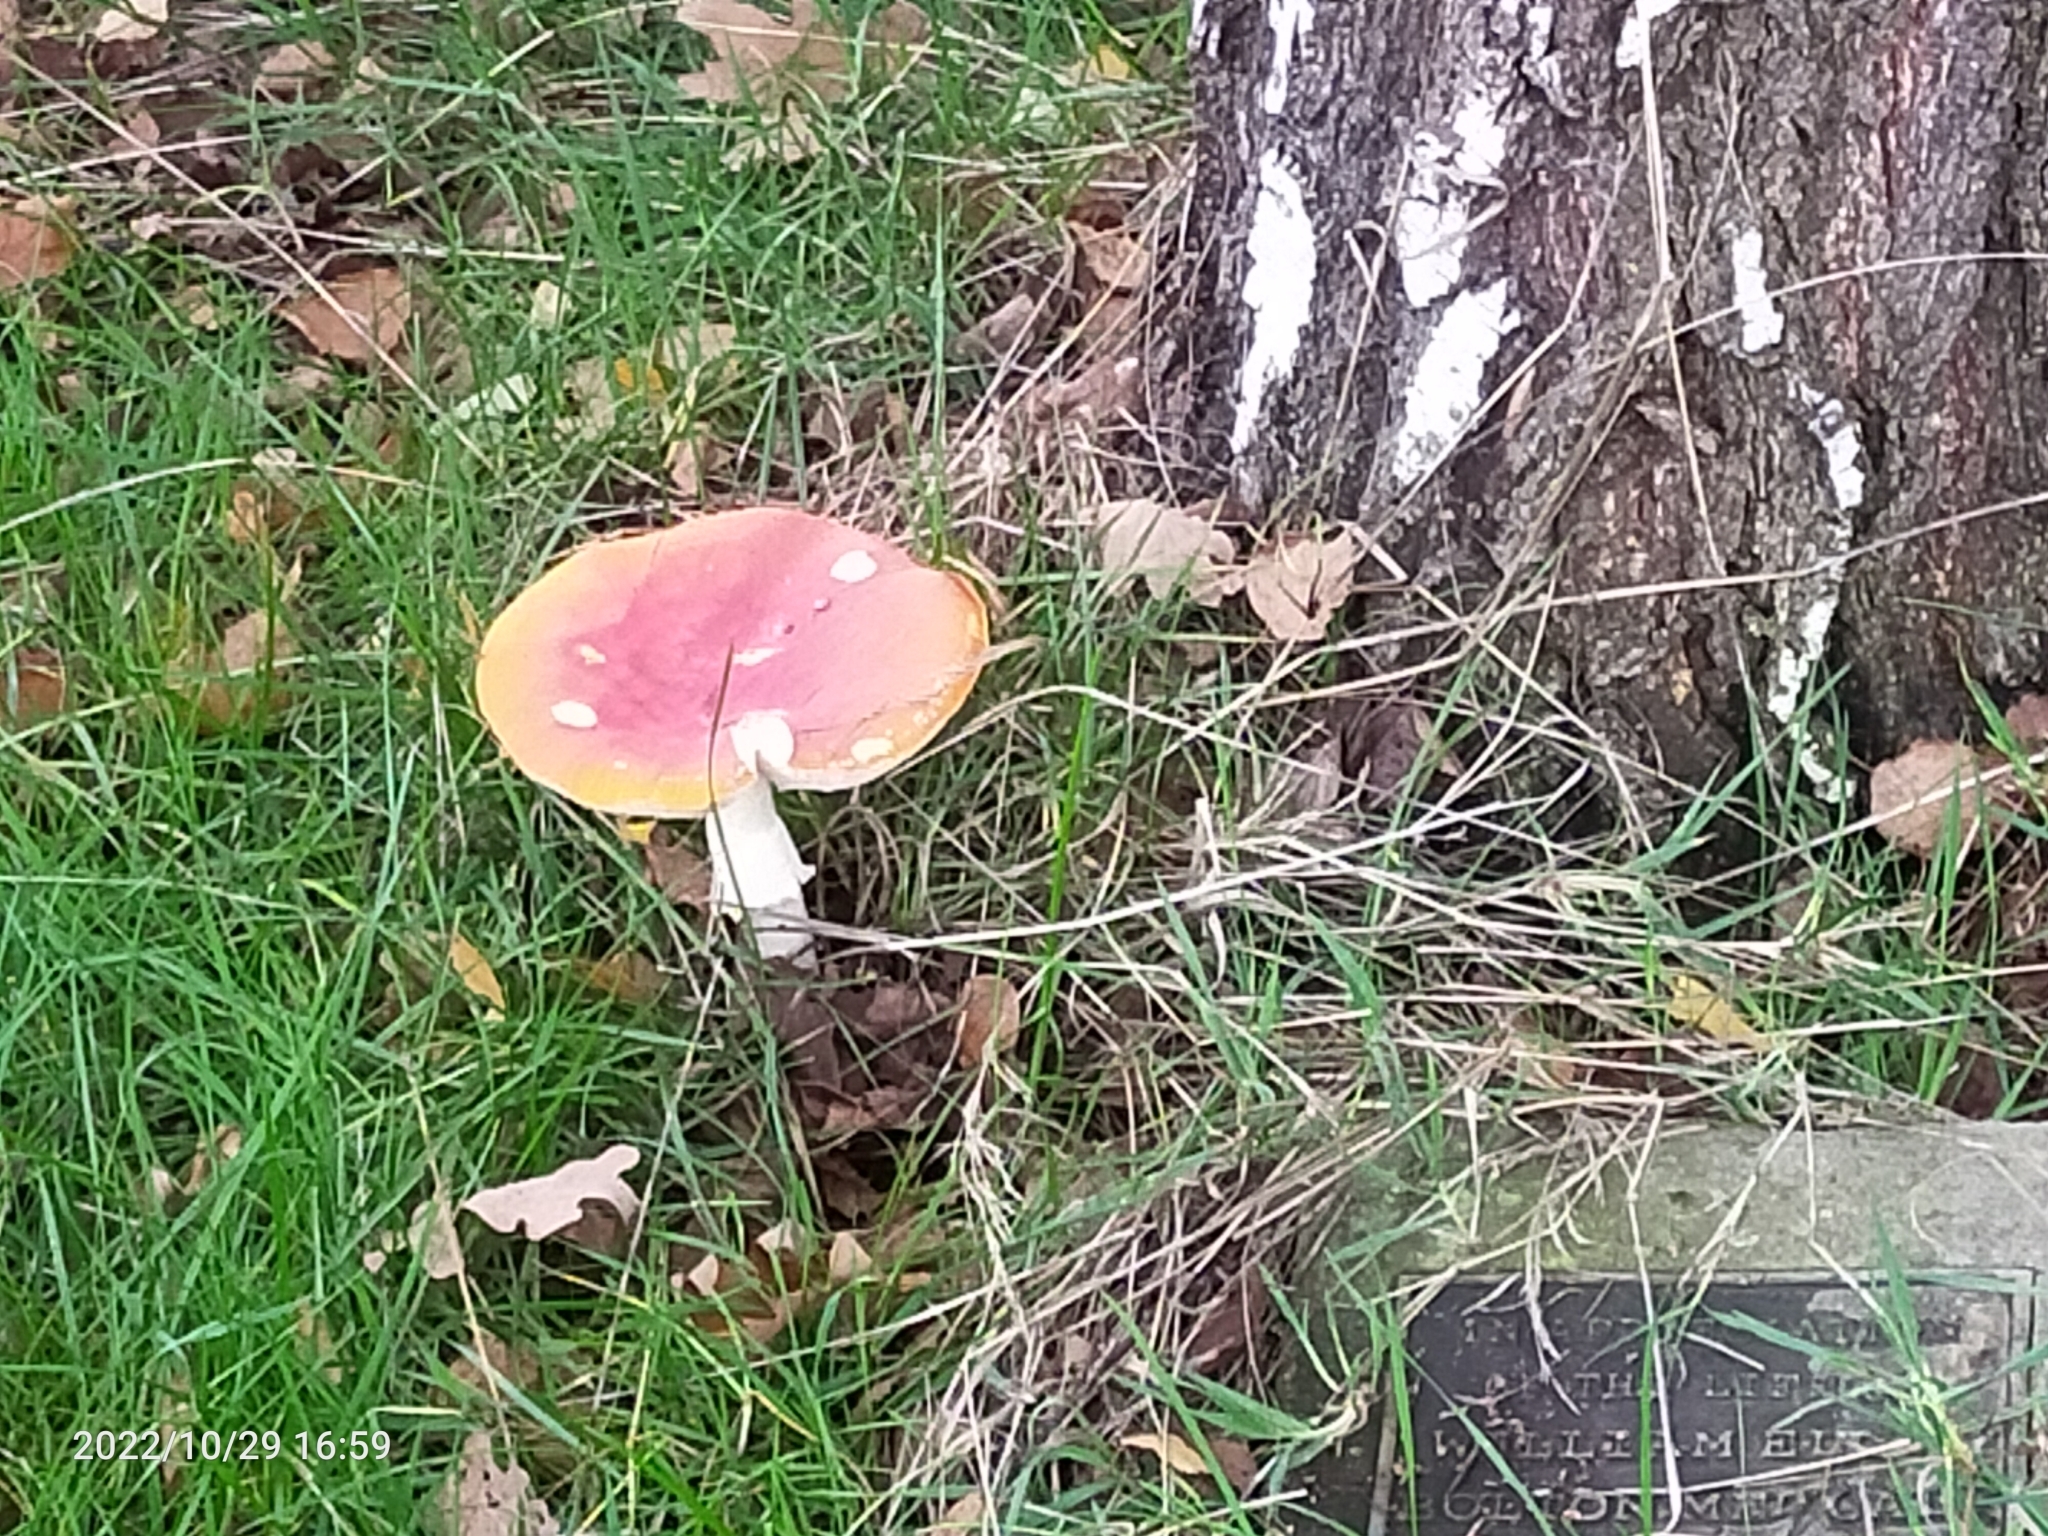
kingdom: Fungi
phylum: Basidiomycota
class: Agaricomycetes
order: Agaricales
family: Amanitaceae
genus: Amanita
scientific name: Amanita muscaria
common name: Fly agaric
